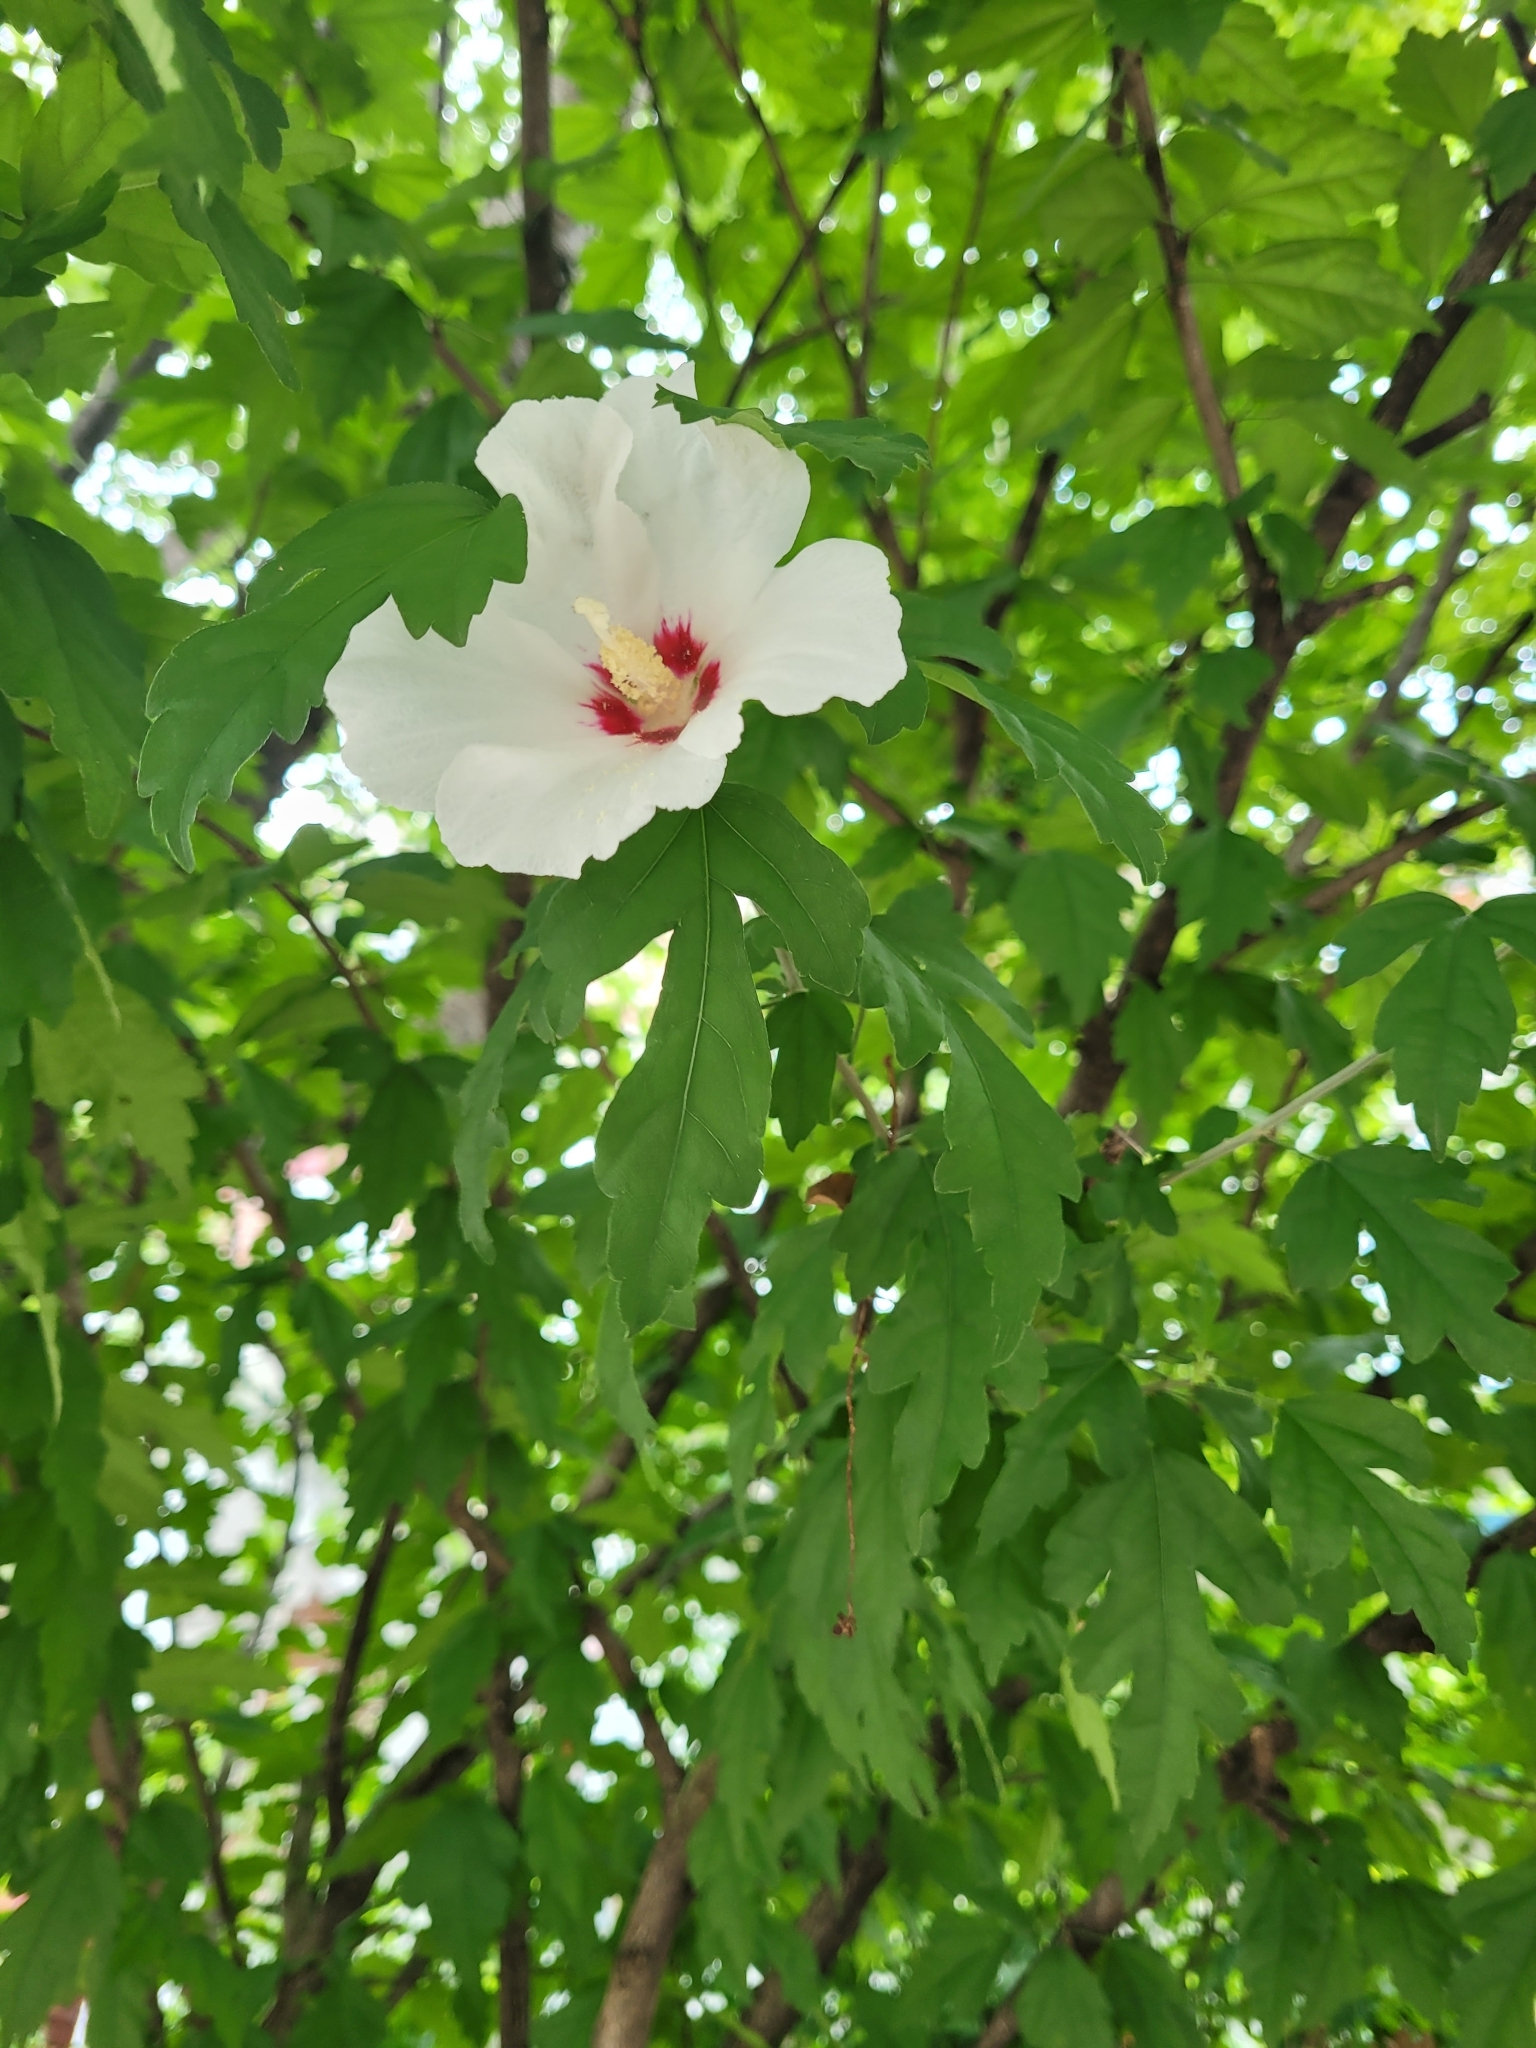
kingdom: Plantae
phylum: Tracheophyta
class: Magnoliopsida
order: Malvales
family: Malvaceae
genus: Hibiscus
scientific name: Hibiscus syriacus
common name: Syrian ketmia
